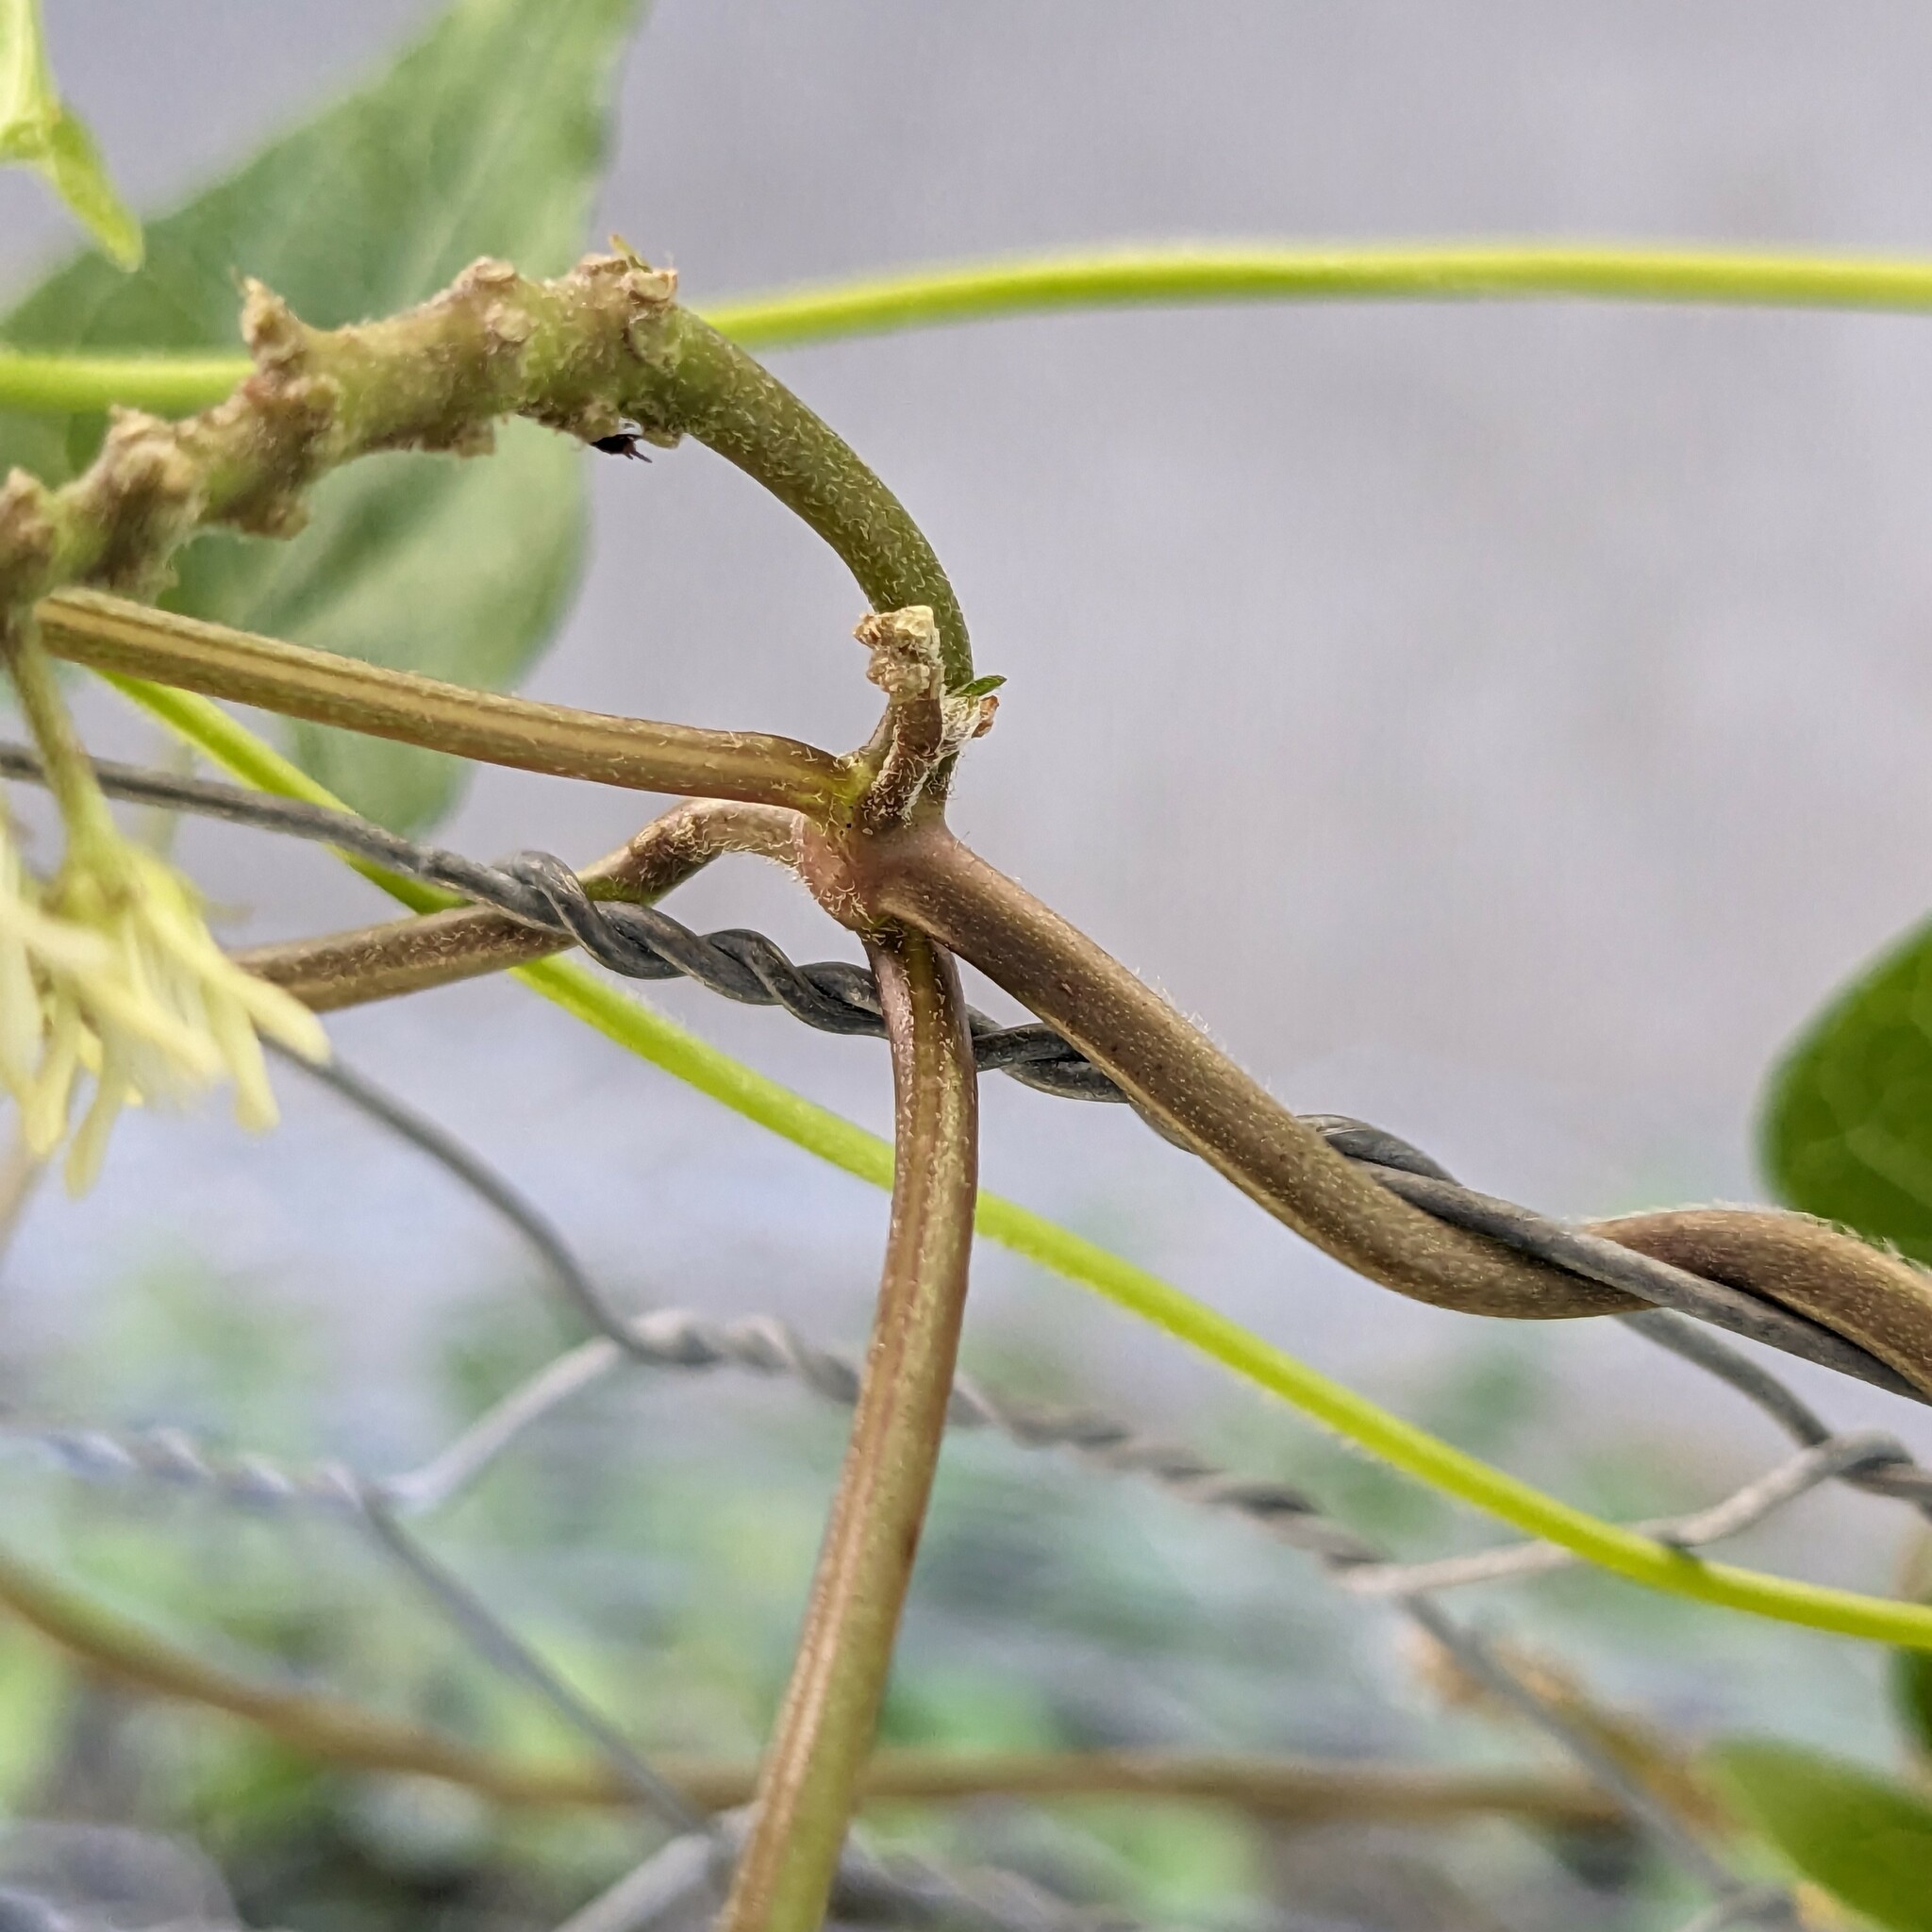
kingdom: Plantae
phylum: Tracheophyta
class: Magnoliopsida
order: Gentianales
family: Apocynaceae
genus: Cynanchum
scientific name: Cynanchum laeve
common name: Sandvine
